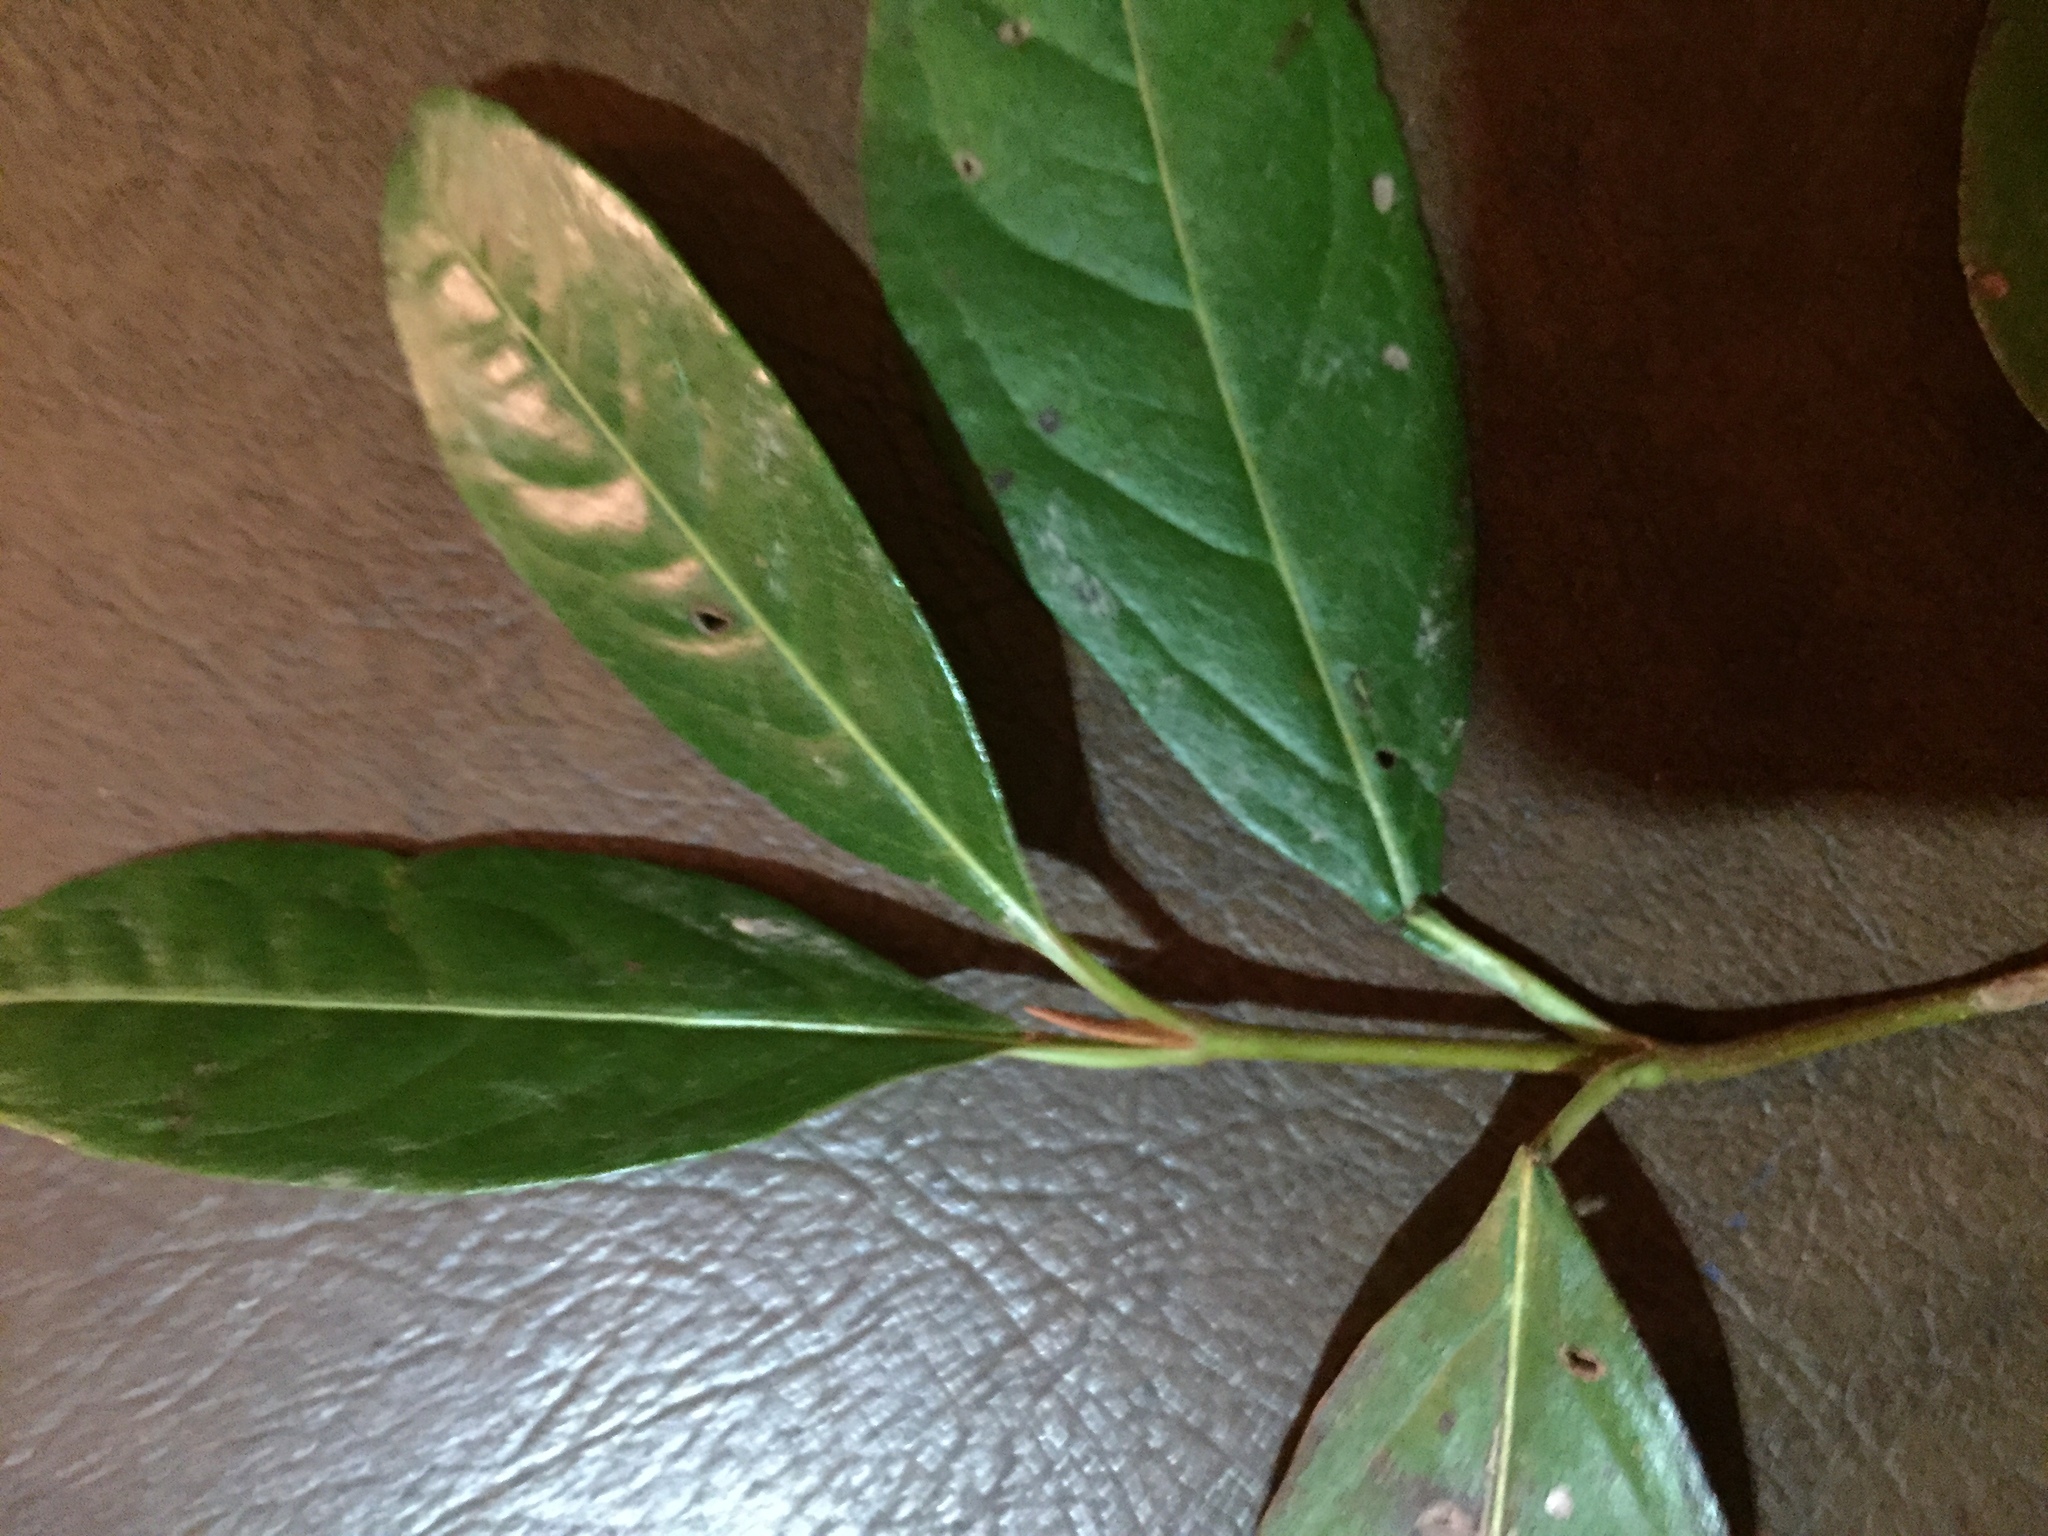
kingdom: Plantae
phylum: Tracheophyta
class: Magnoliopsida
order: Dipsacales
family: Viburnaceae
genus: Viburnum
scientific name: Viburnum nudum
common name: Possum haw
